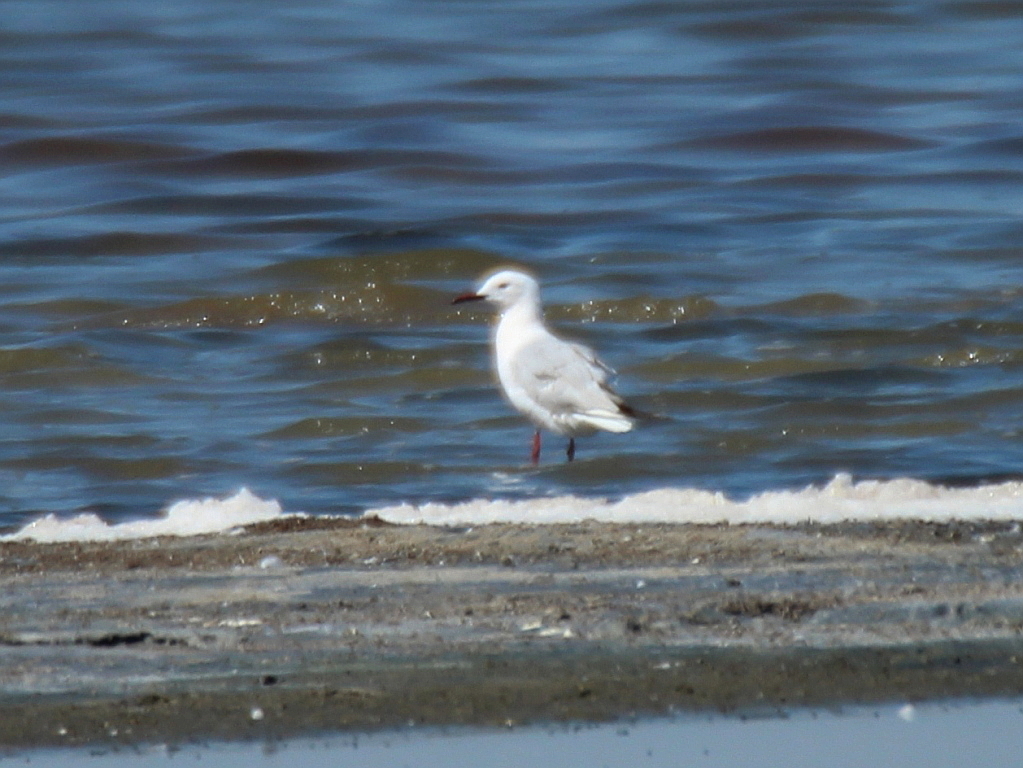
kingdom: Animalia
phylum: Chordata
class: Aves
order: Charadriiformes
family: Laridae
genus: Chroicocephalus
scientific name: Chroicocephalus genei
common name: Slender-billed gull
